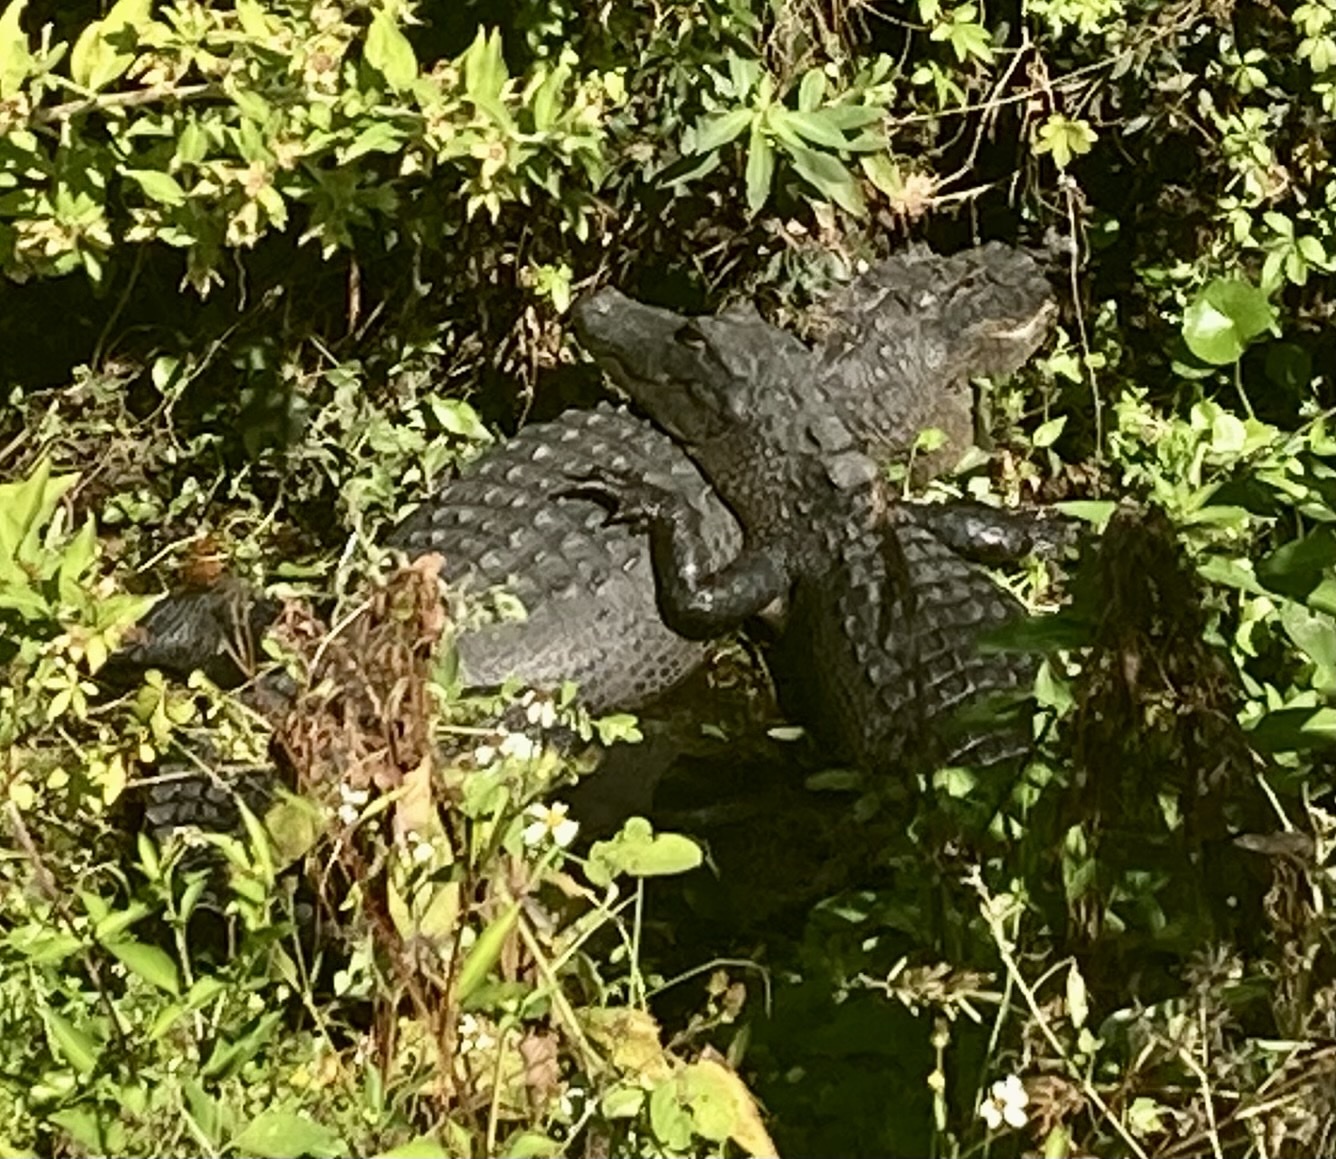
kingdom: Animalia
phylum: Chordata
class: Crocodylia
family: Alligatoridae
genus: Alligator
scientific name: Alligator mississippiensis
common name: American alligator
